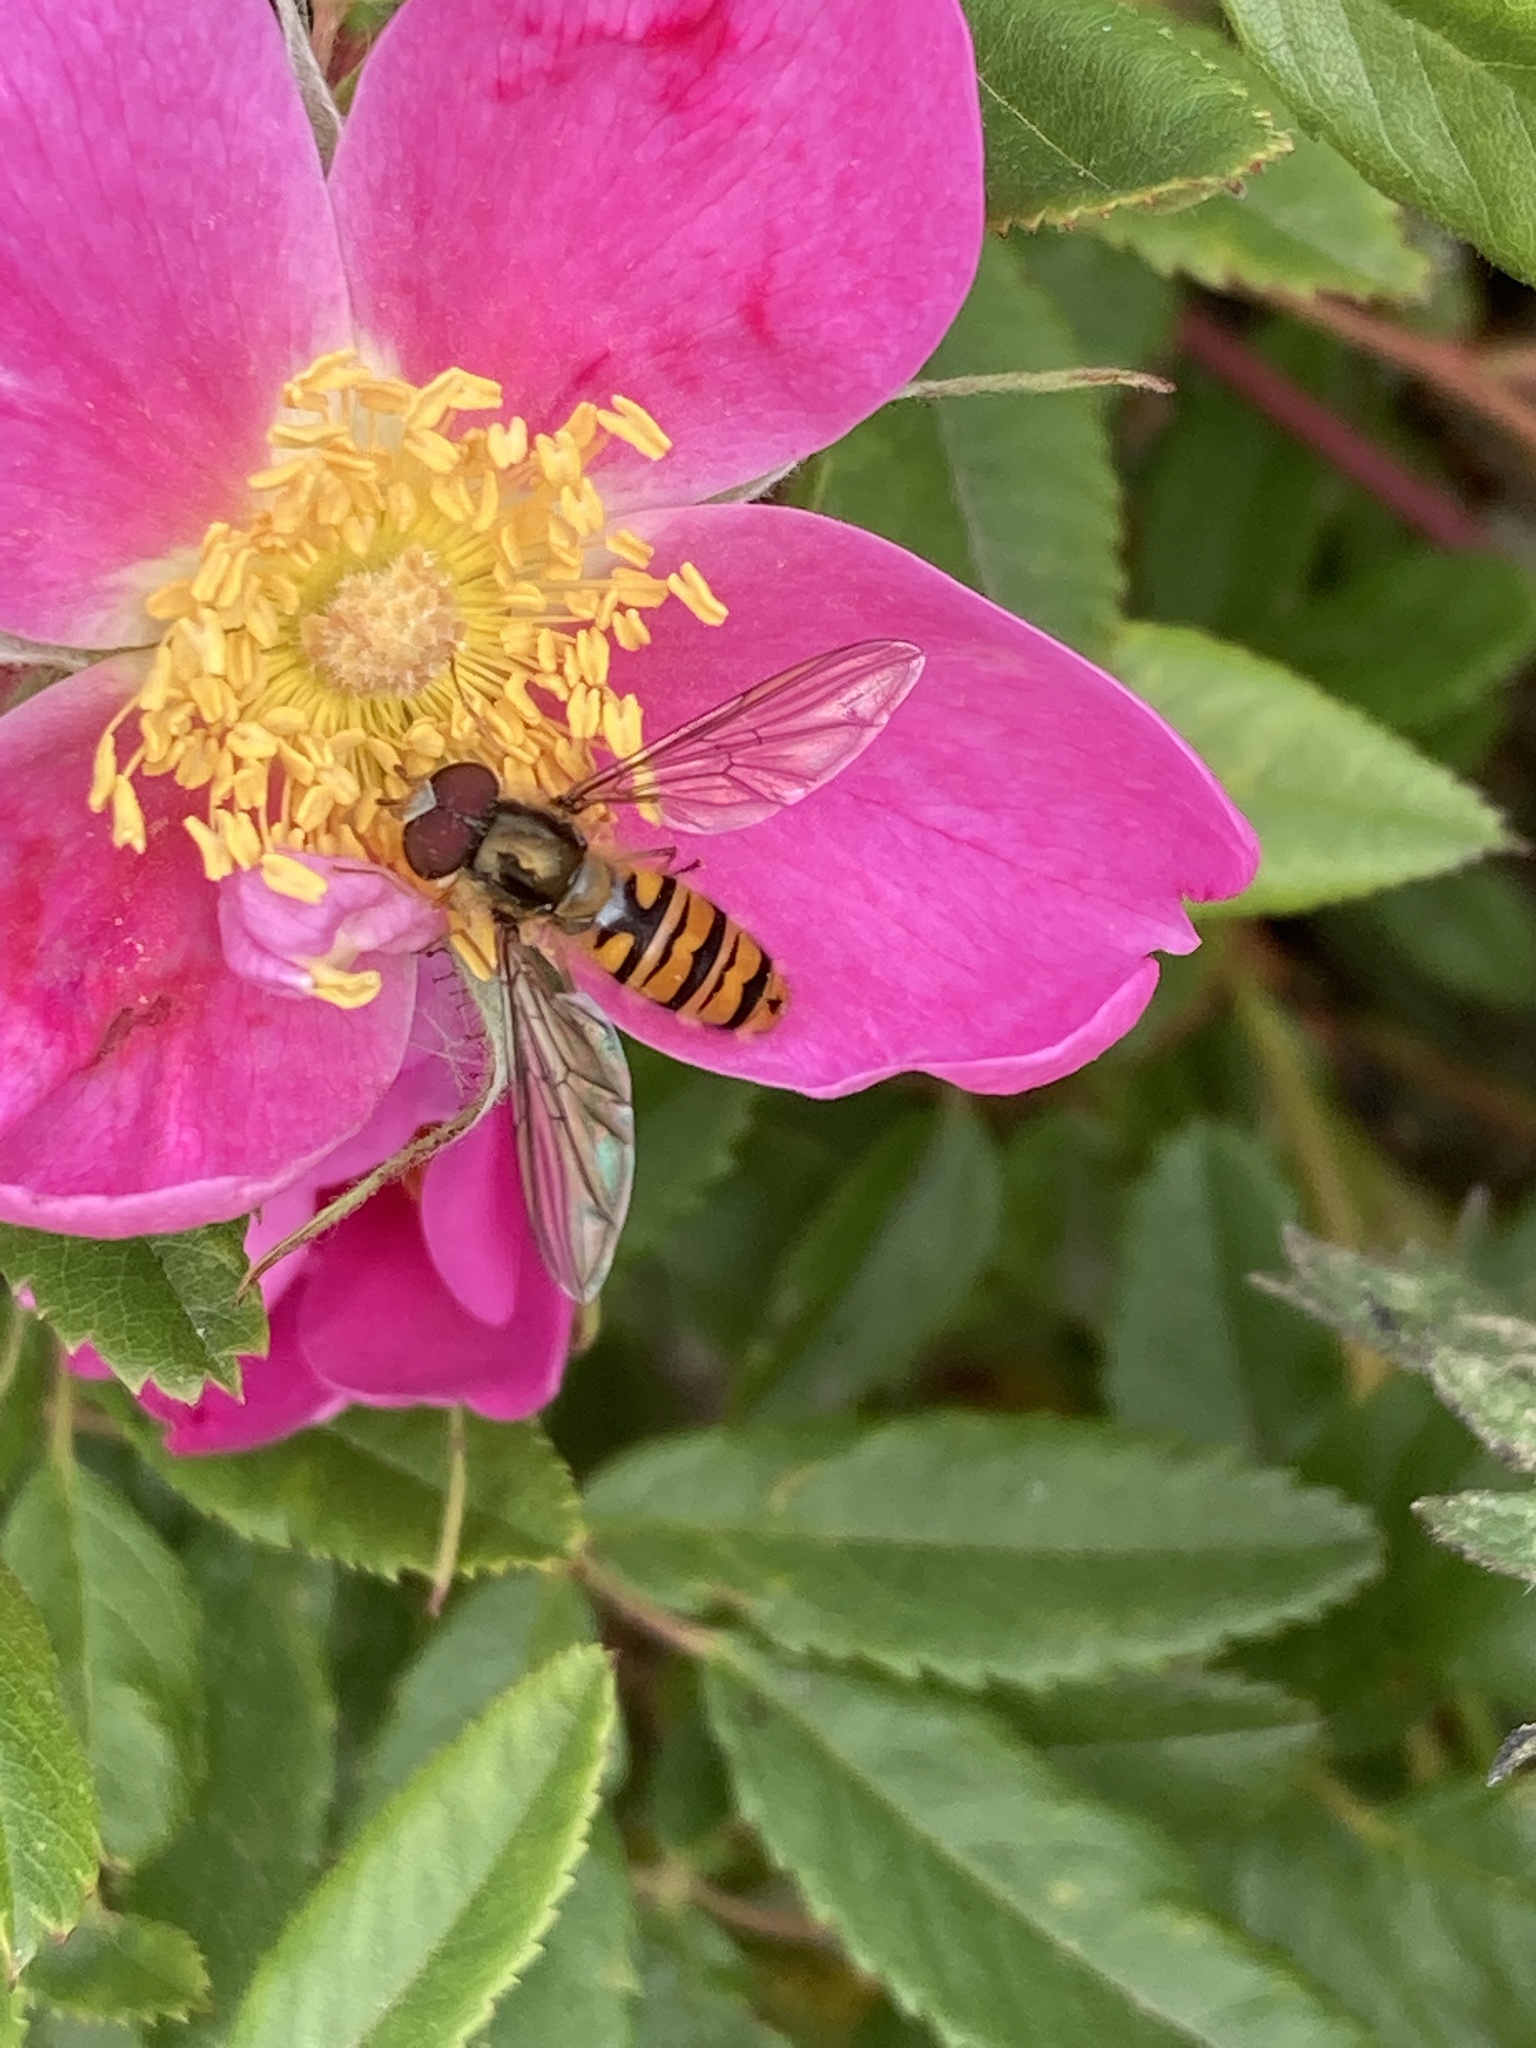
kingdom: Animalia
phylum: Arthropoda
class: Insecta
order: Diptera
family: Syrphidae
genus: Episyrphus
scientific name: Episyrphus balteatus
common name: Marmalade hoverfly
